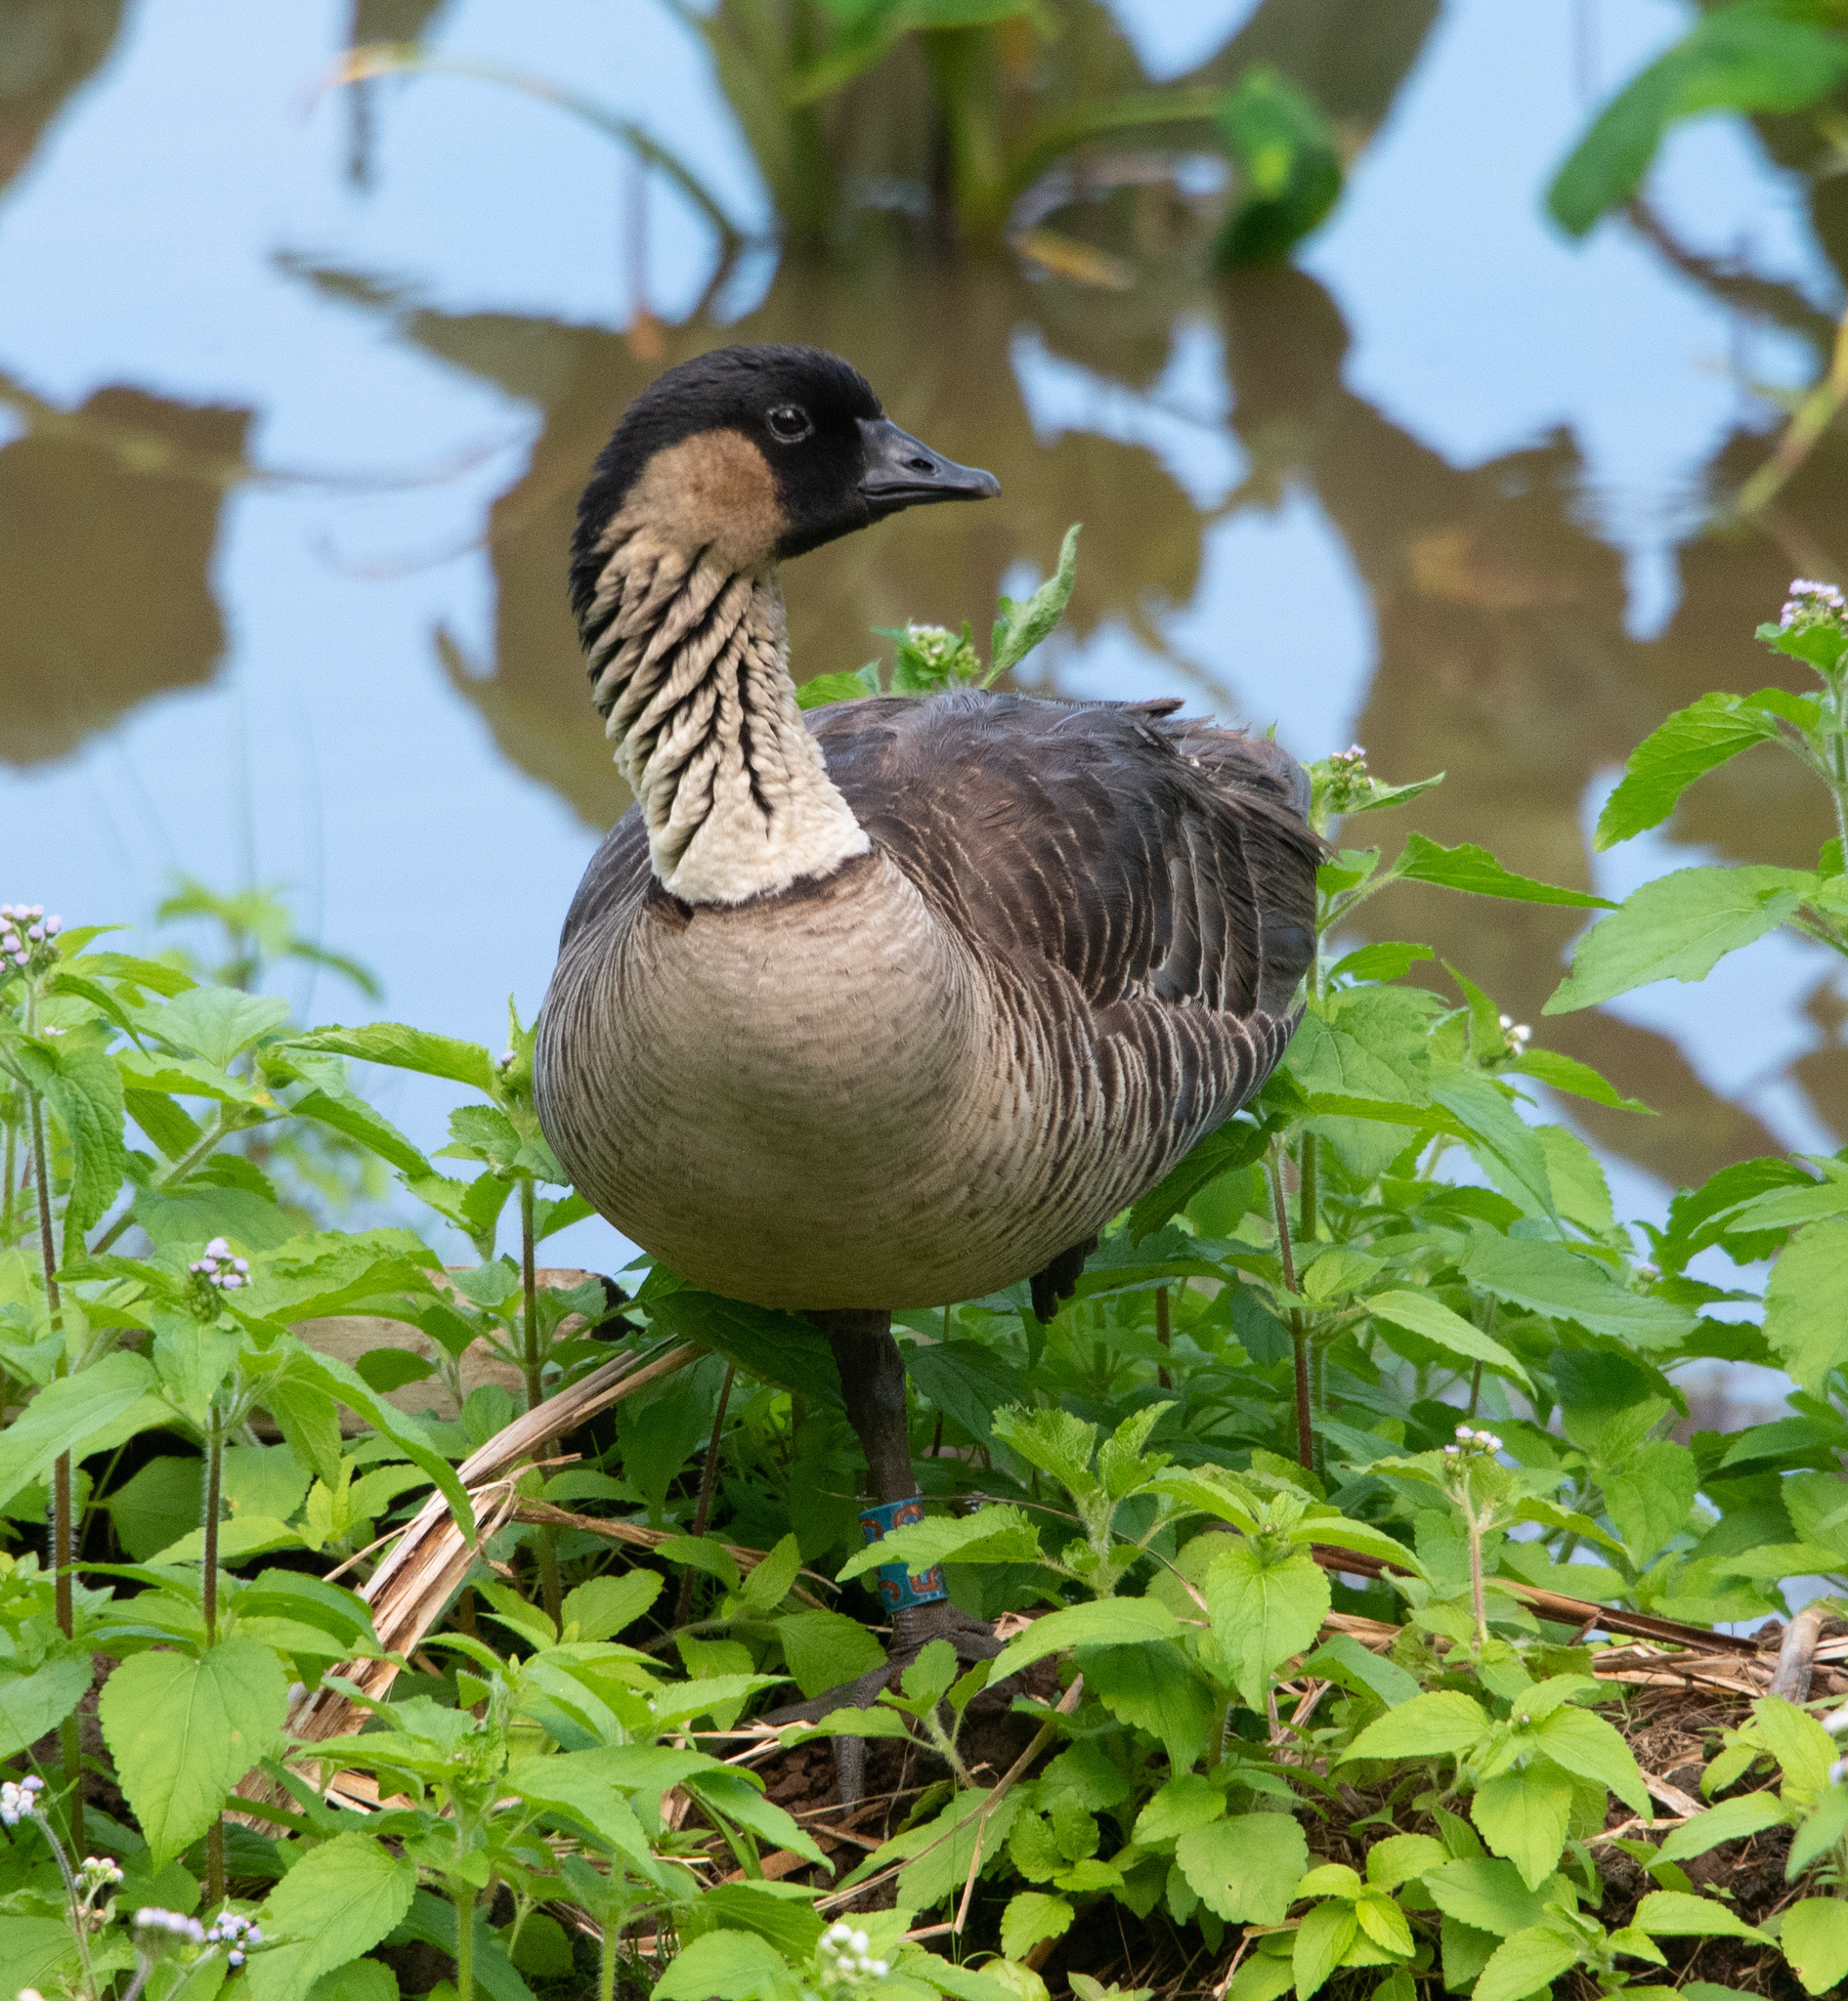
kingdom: Animalia
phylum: Chordata
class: Aves
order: Anseriformes
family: Anatidae
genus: Branta
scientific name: Branta sandvicensis
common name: Nene
